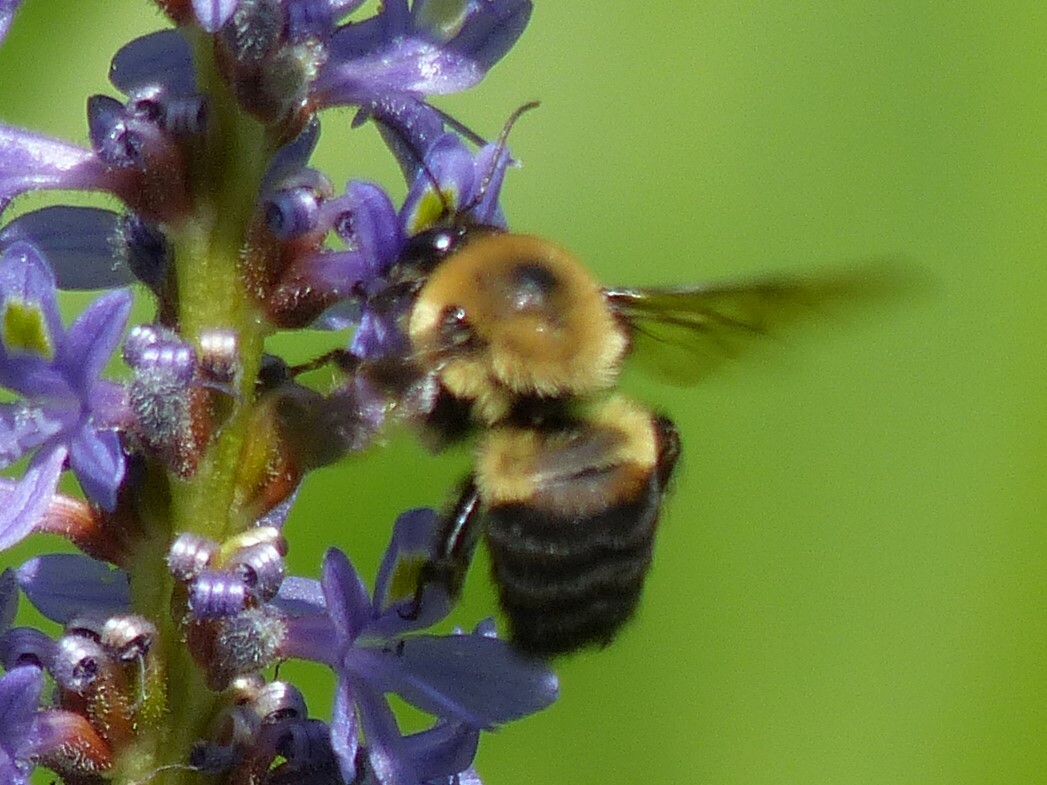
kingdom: Animalia
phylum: Arthropoda
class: Insecta
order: Hymenoptera
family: Apidae
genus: Bombus
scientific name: Bombus griseocollis
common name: Brown-belted bumble bee
